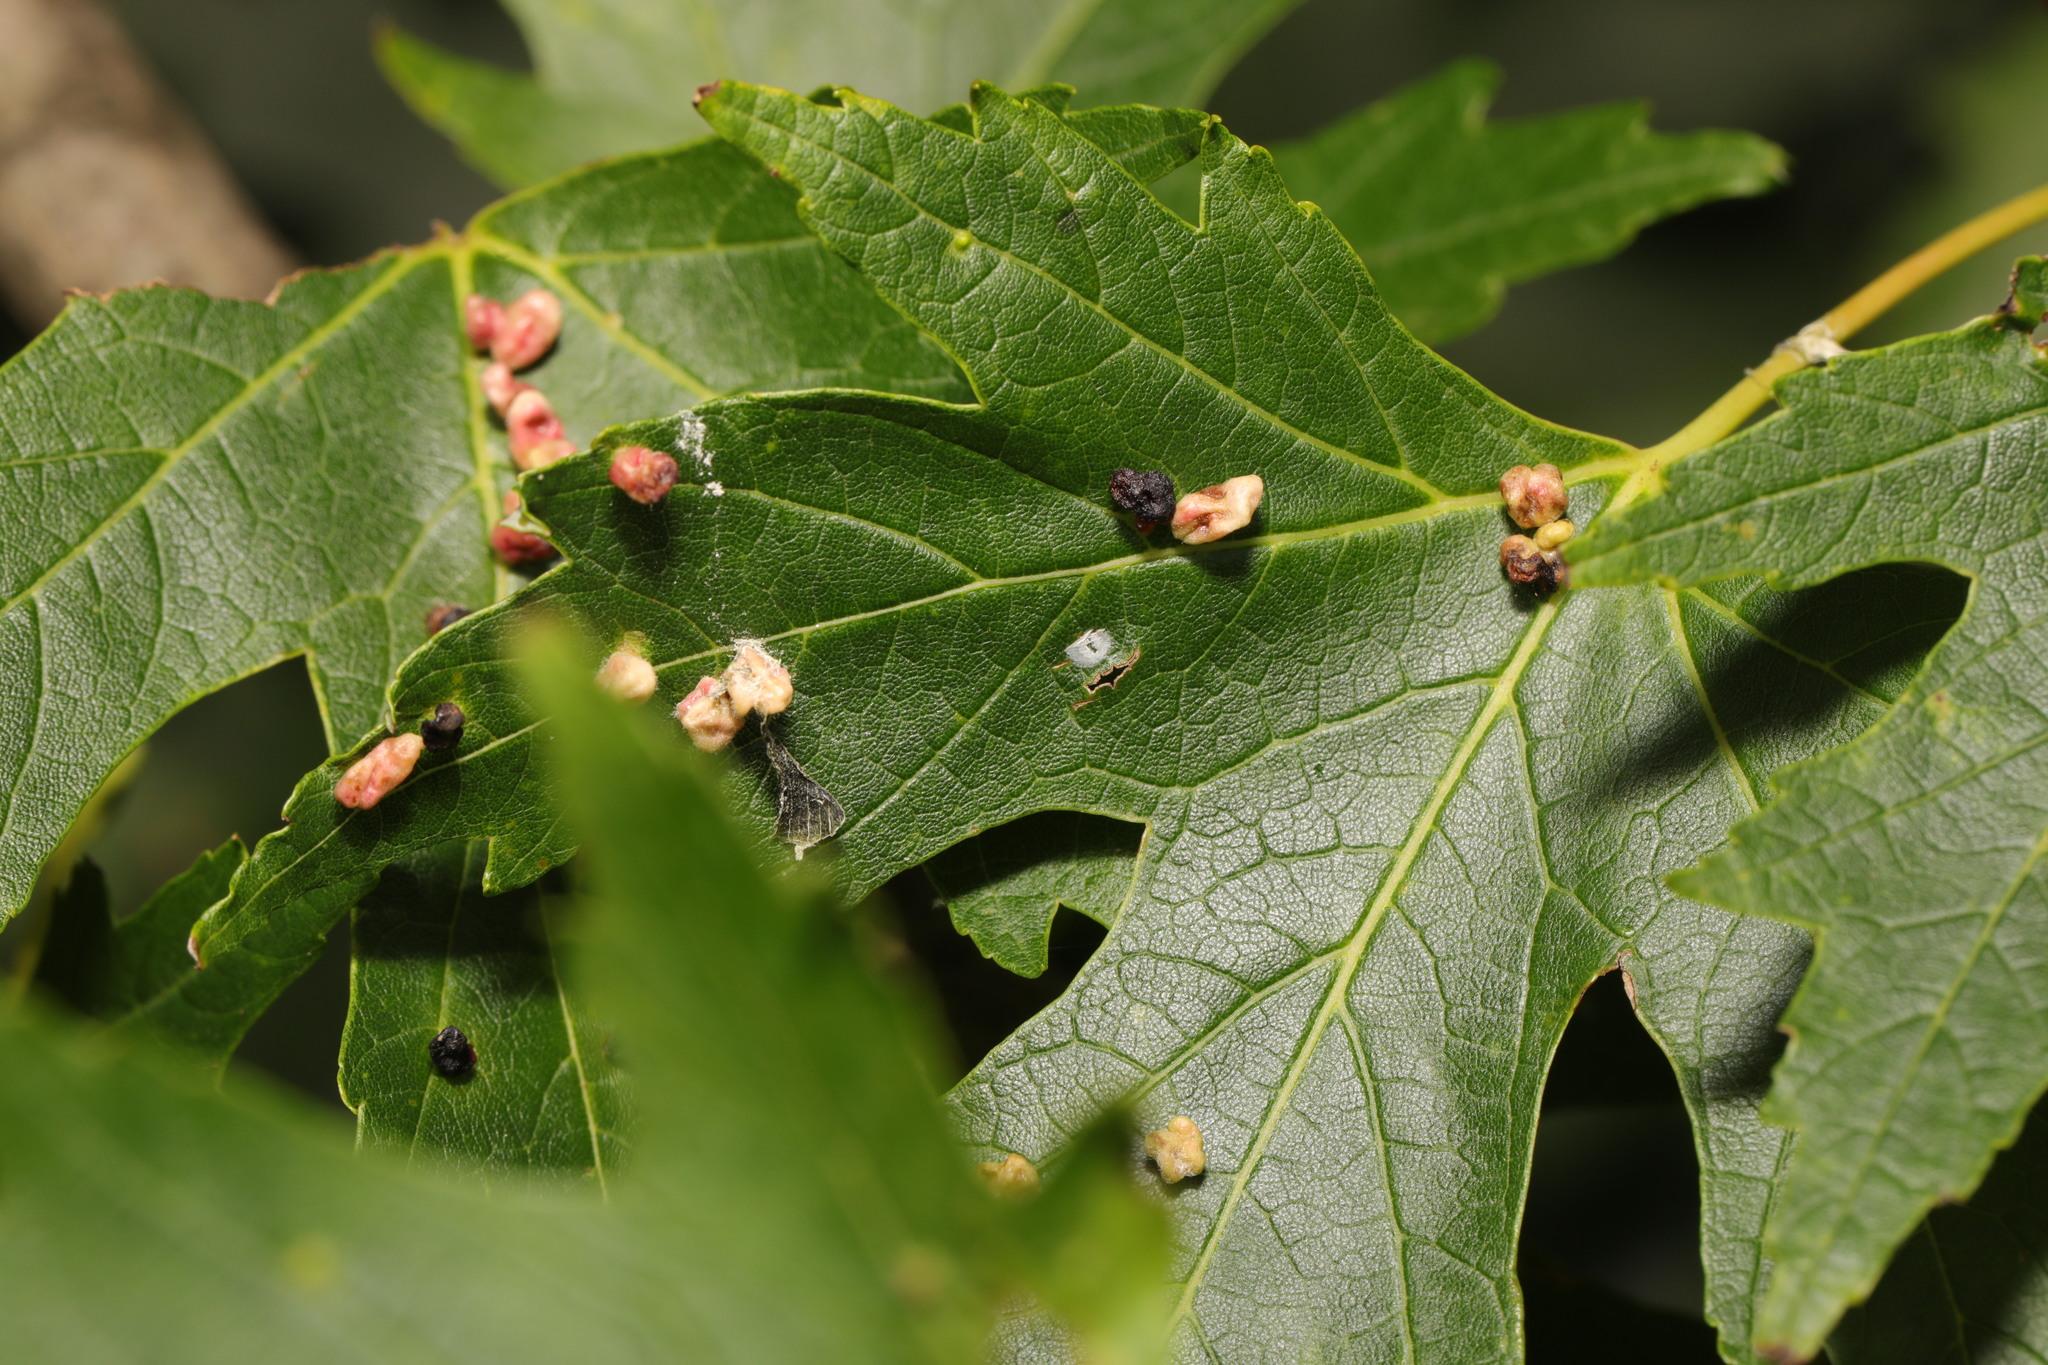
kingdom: Animalia
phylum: Arthropoda
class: Arachnida
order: Trombidiformes
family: Eriophyidae
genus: Vasates
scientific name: Vasates quadripedes
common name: Maple bladder gall mite
